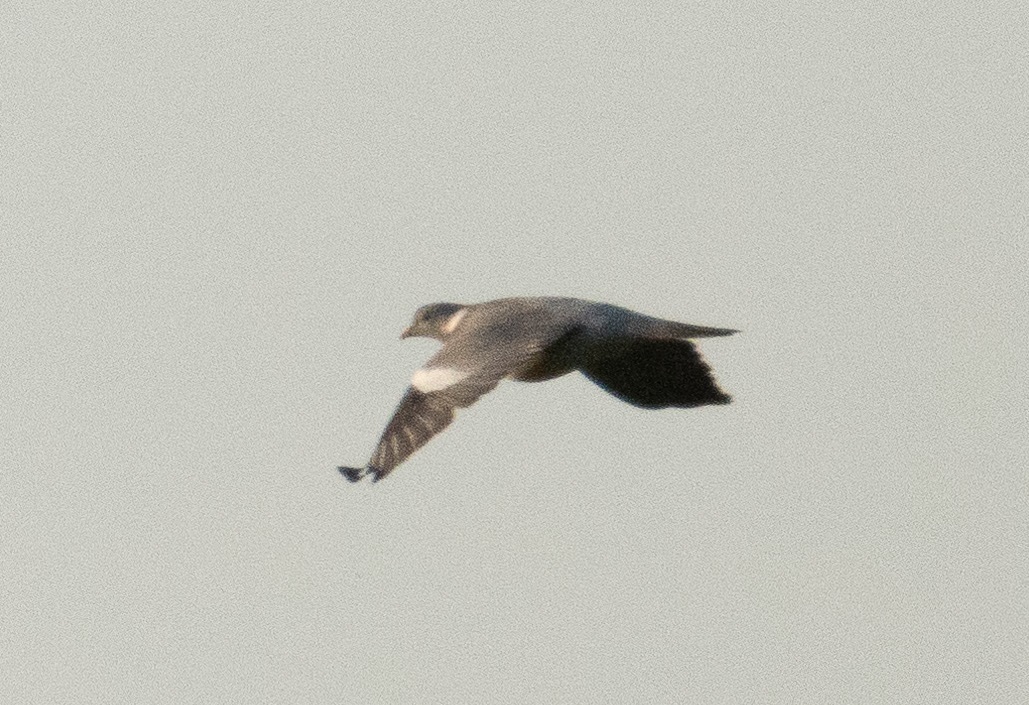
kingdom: Animalia
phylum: Chordata
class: Aves
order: Columbiformes
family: Columbidae
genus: Columba
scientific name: Columba palumbus
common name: Common wood pigeon
